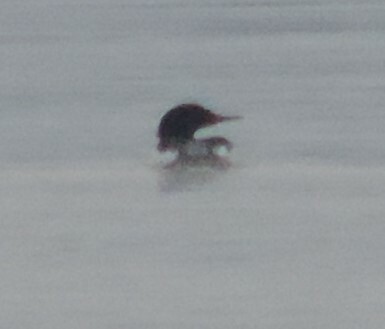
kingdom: Animalia
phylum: Chordata
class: Aves
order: Anseriformes
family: Anatidae
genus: Mergus
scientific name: Mergus merganser
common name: Common merganser
